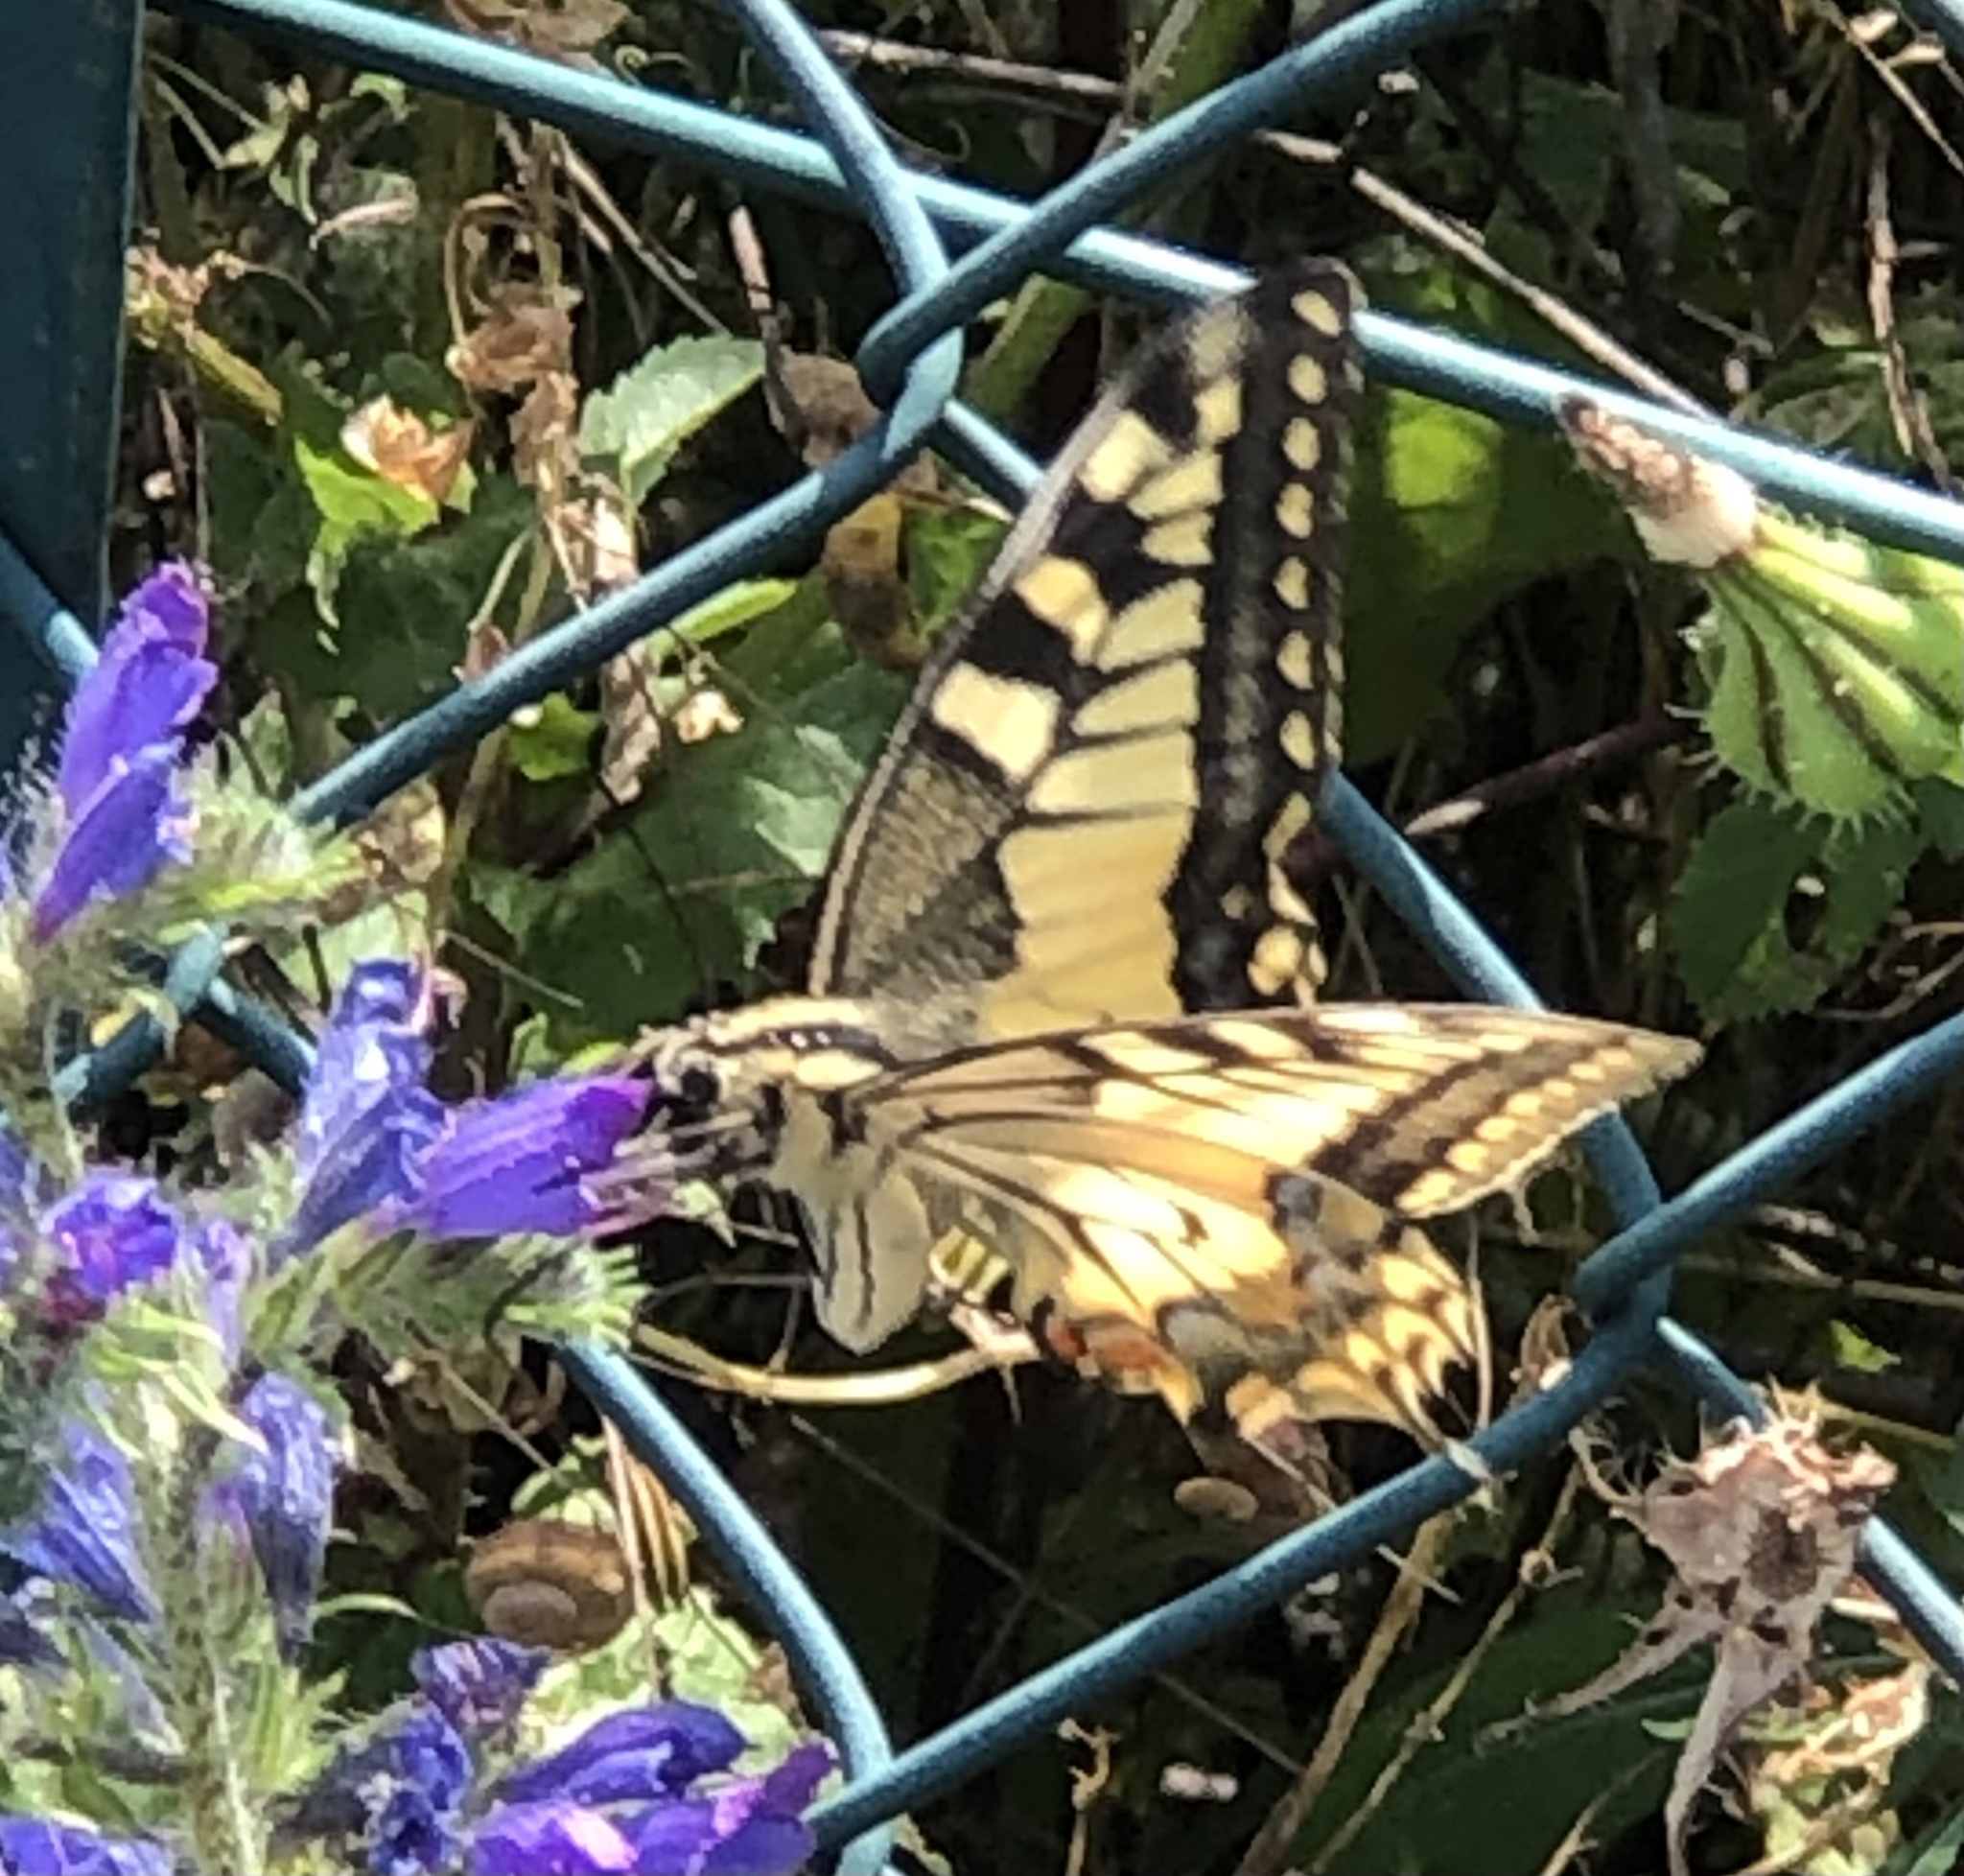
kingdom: Animalia
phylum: Arthropoda
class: Insecta
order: Lepidoptera
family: Papilionidae
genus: Papilio
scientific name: Papilio machaon
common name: Swallowtail
